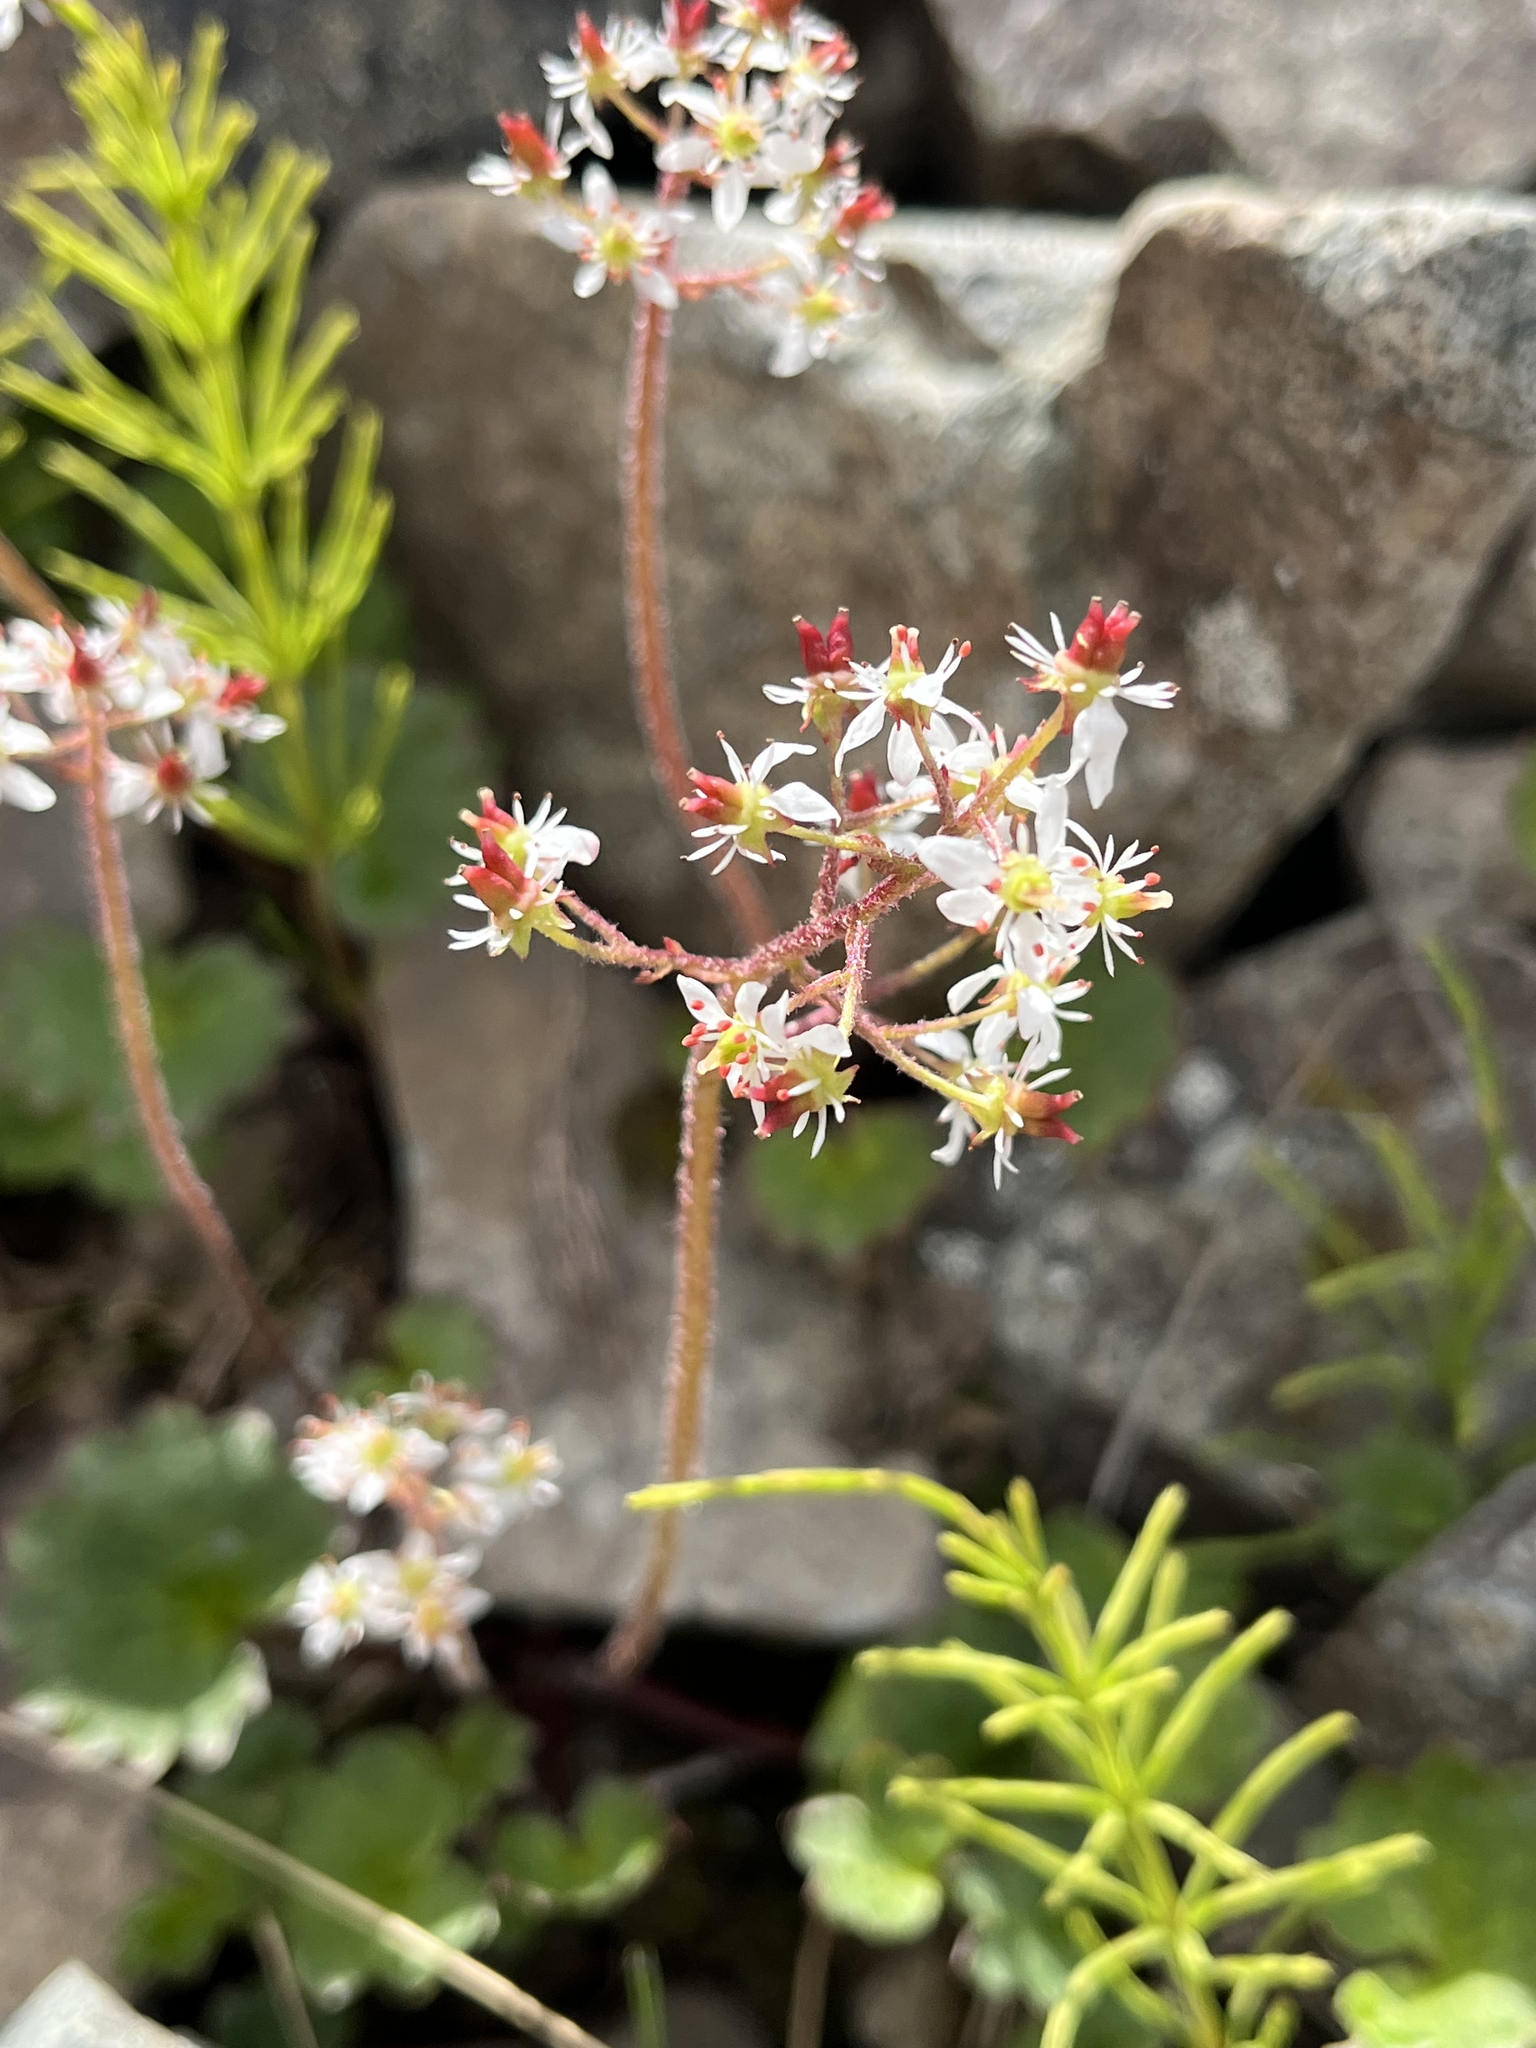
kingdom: Plantae
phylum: Tracheophyta
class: Magnoliopsida
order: Saxifragales
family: Saxifragaceae
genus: Micranthes
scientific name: Micranthes nelsoniana
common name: Nelson's saxifrage
